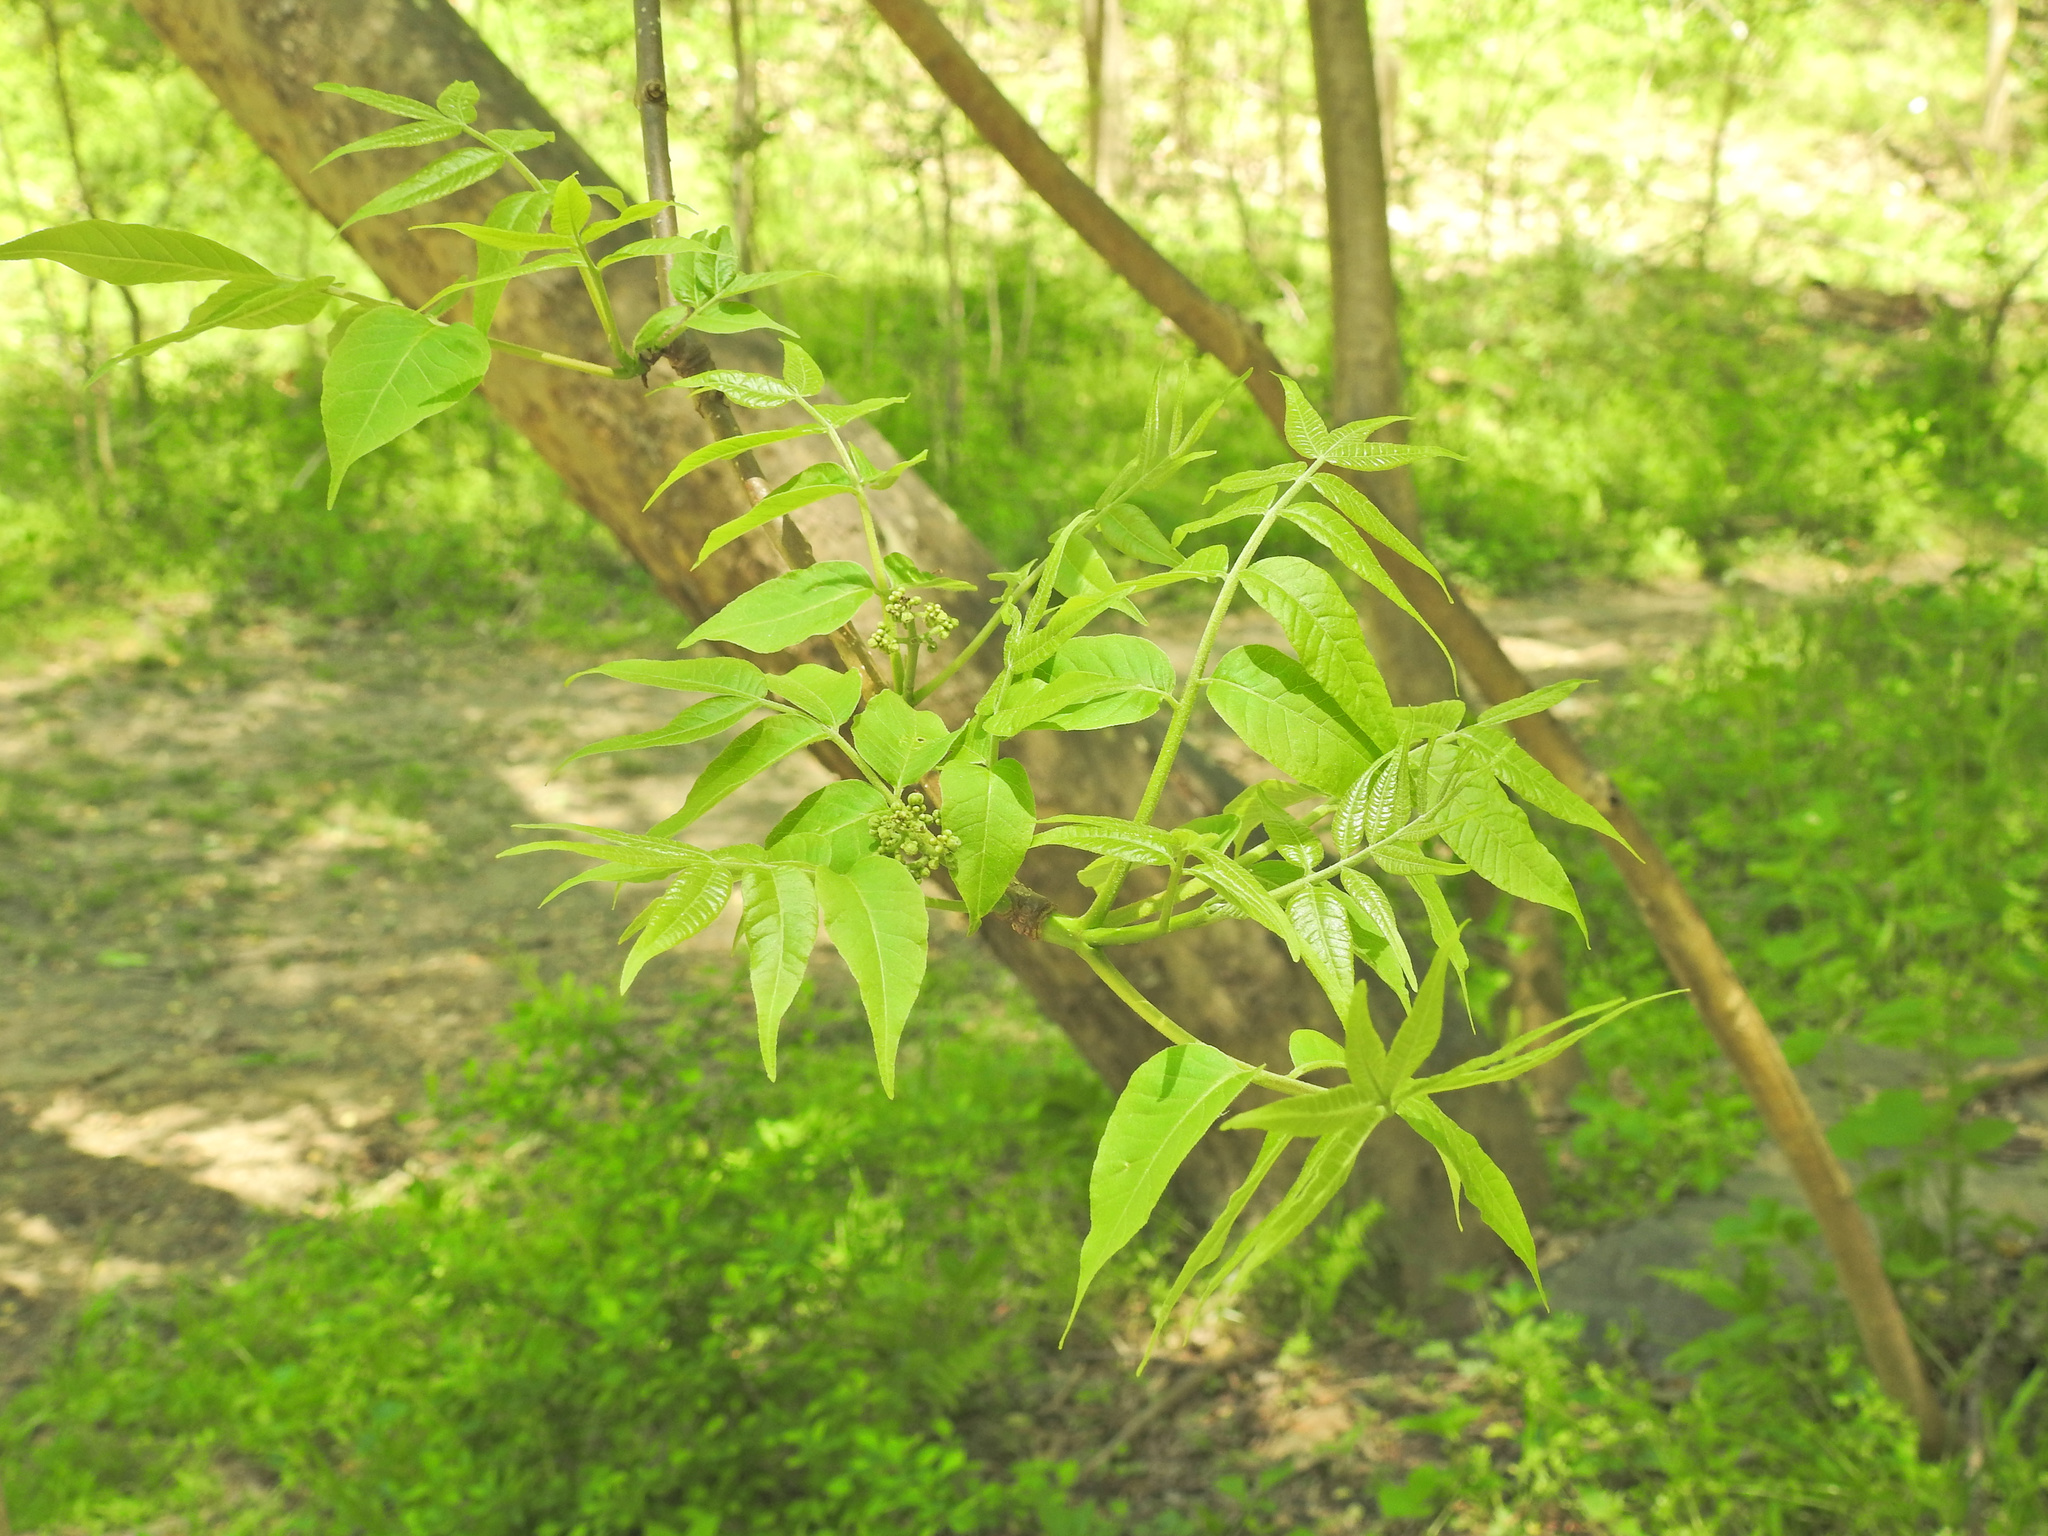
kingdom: Plantae
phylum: Tracheophyta
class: Magnoliopsida
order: Sapindales
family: Rutaceae
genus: Phellodendron
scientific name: Phellodendron amurense
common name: Amur corktree
